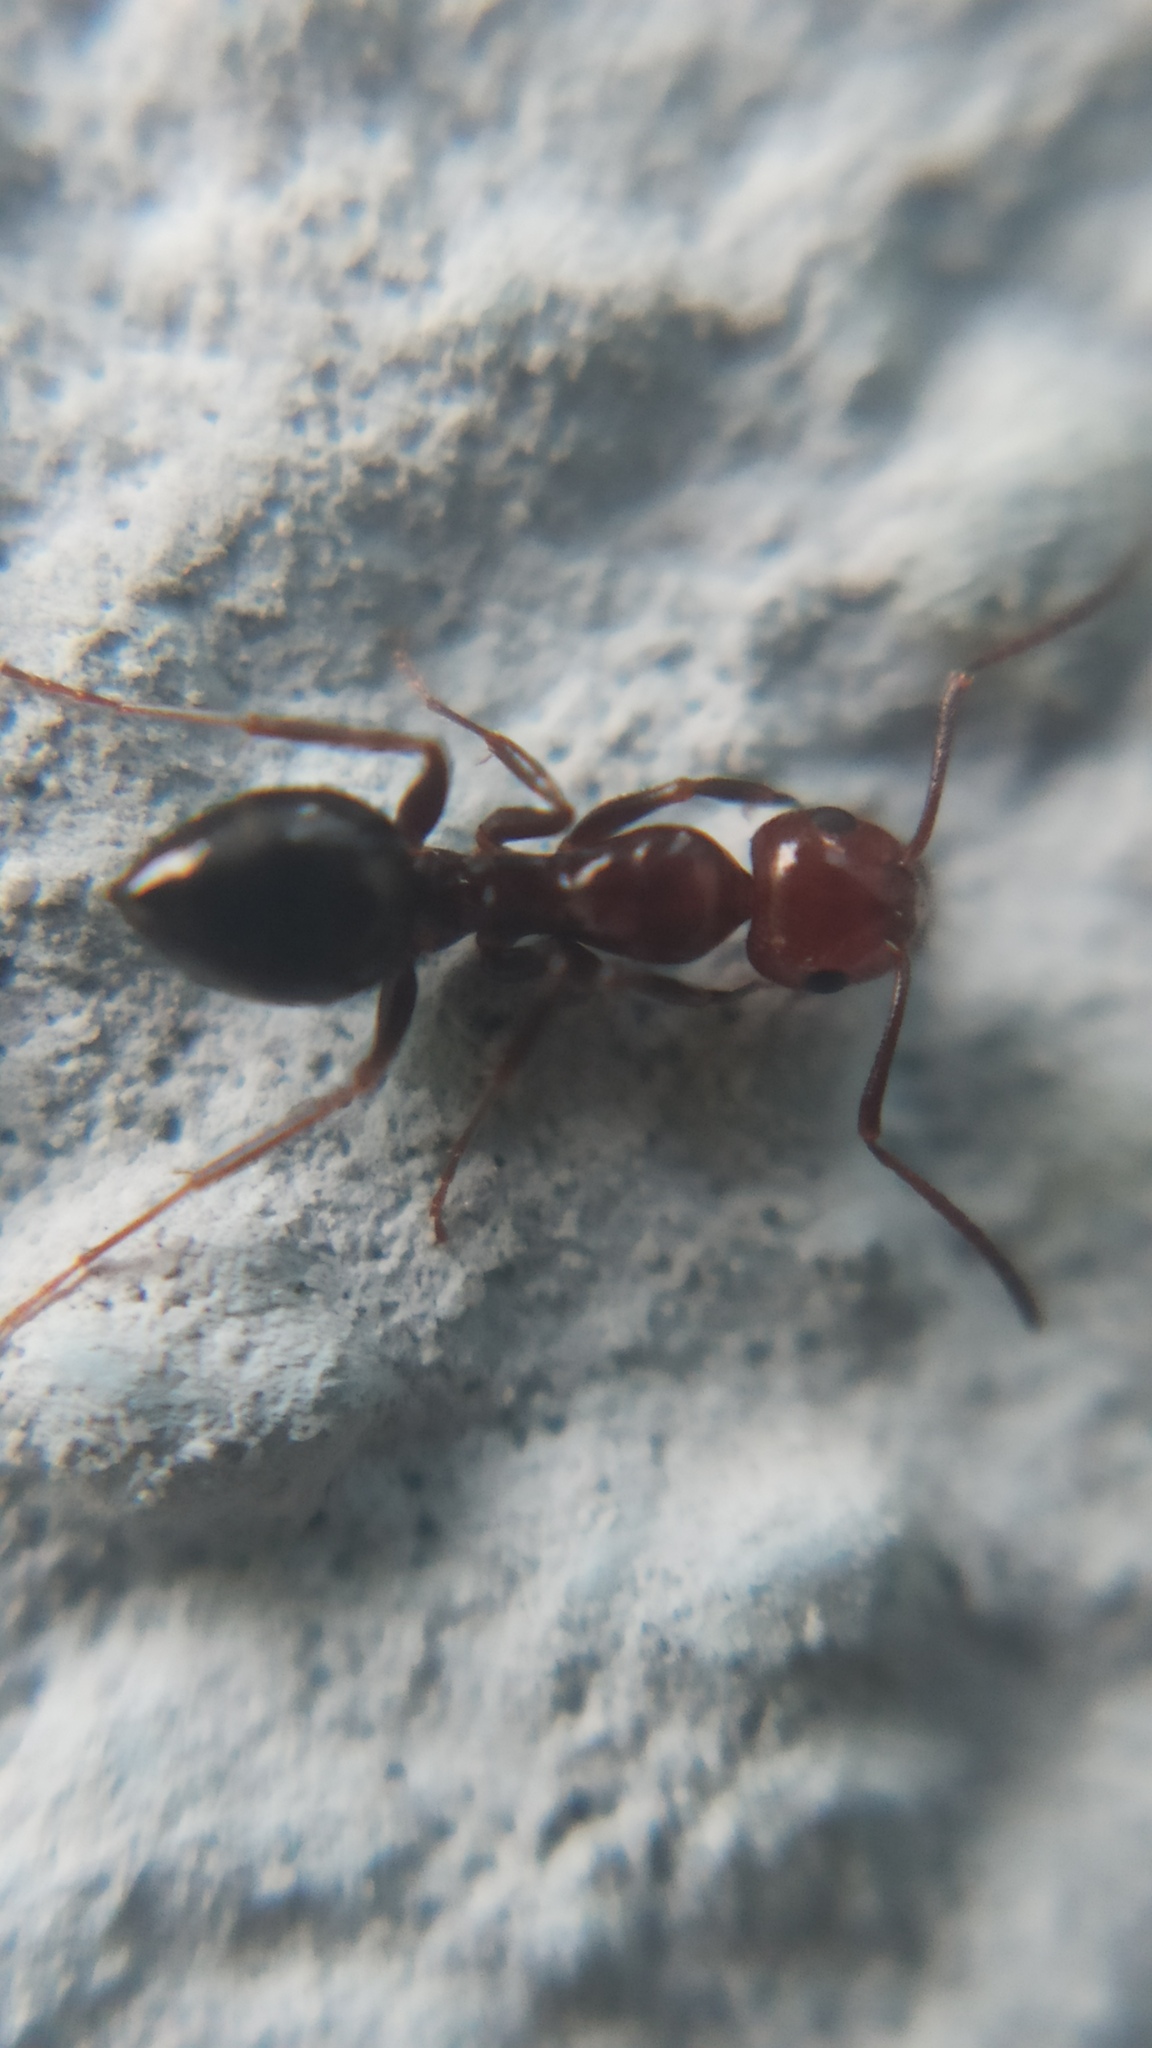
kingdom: Animalia
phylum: Arthropoda
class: Insecta
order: Hymenoptera
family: Formicidae
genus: Camponotus
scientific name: Camponotus lateralis
